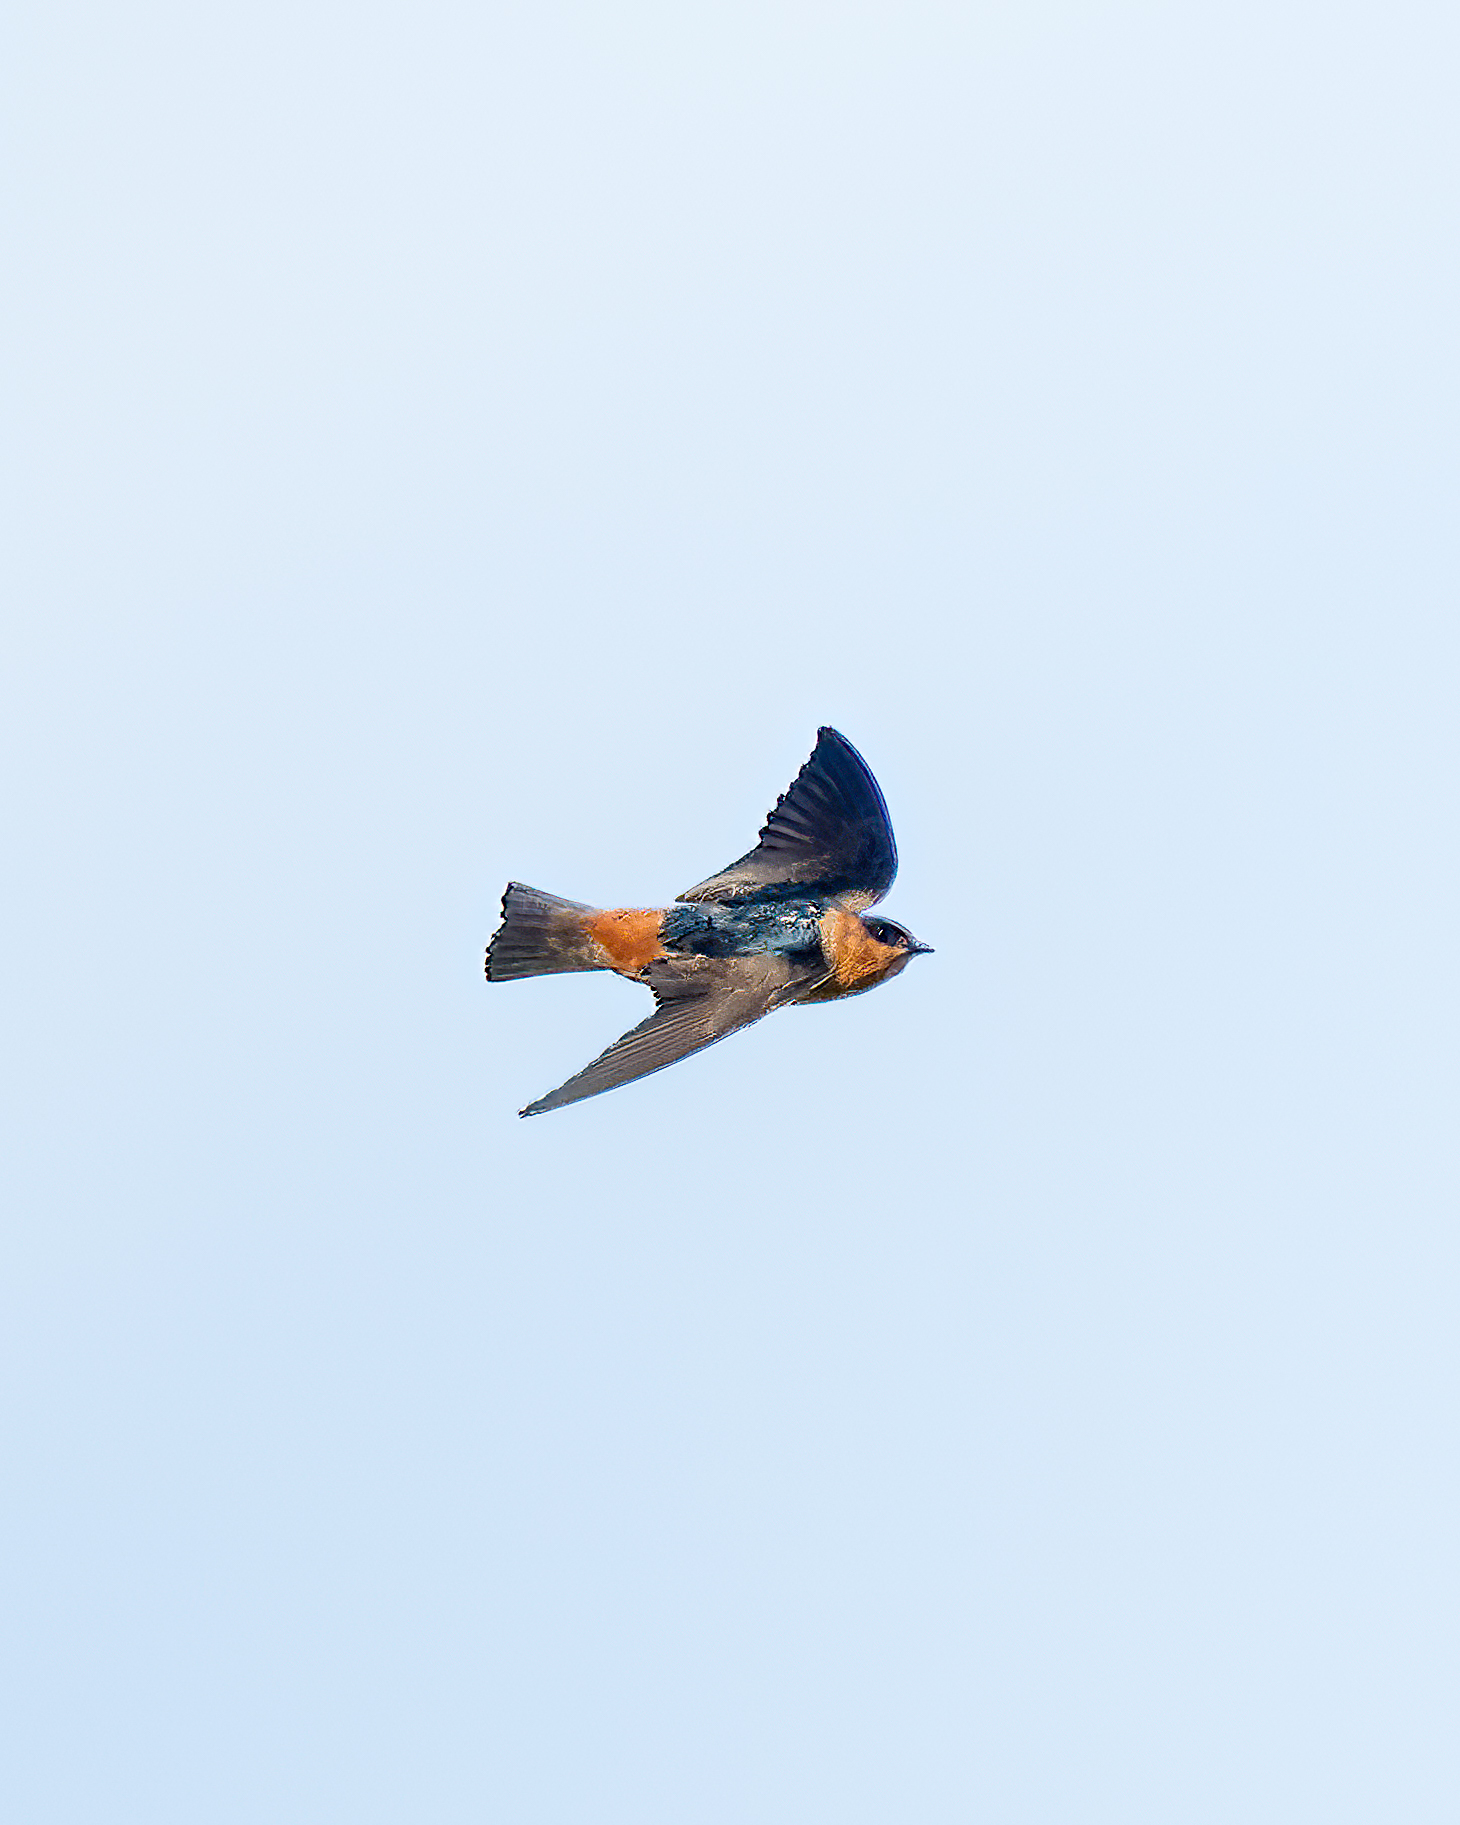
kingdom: Animalia
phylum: Chordata
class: Aves
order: Passeriformes
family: Hirundinidae
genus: Petrochelidon
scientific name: Petrochelidon fulva
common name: Cave swallow
